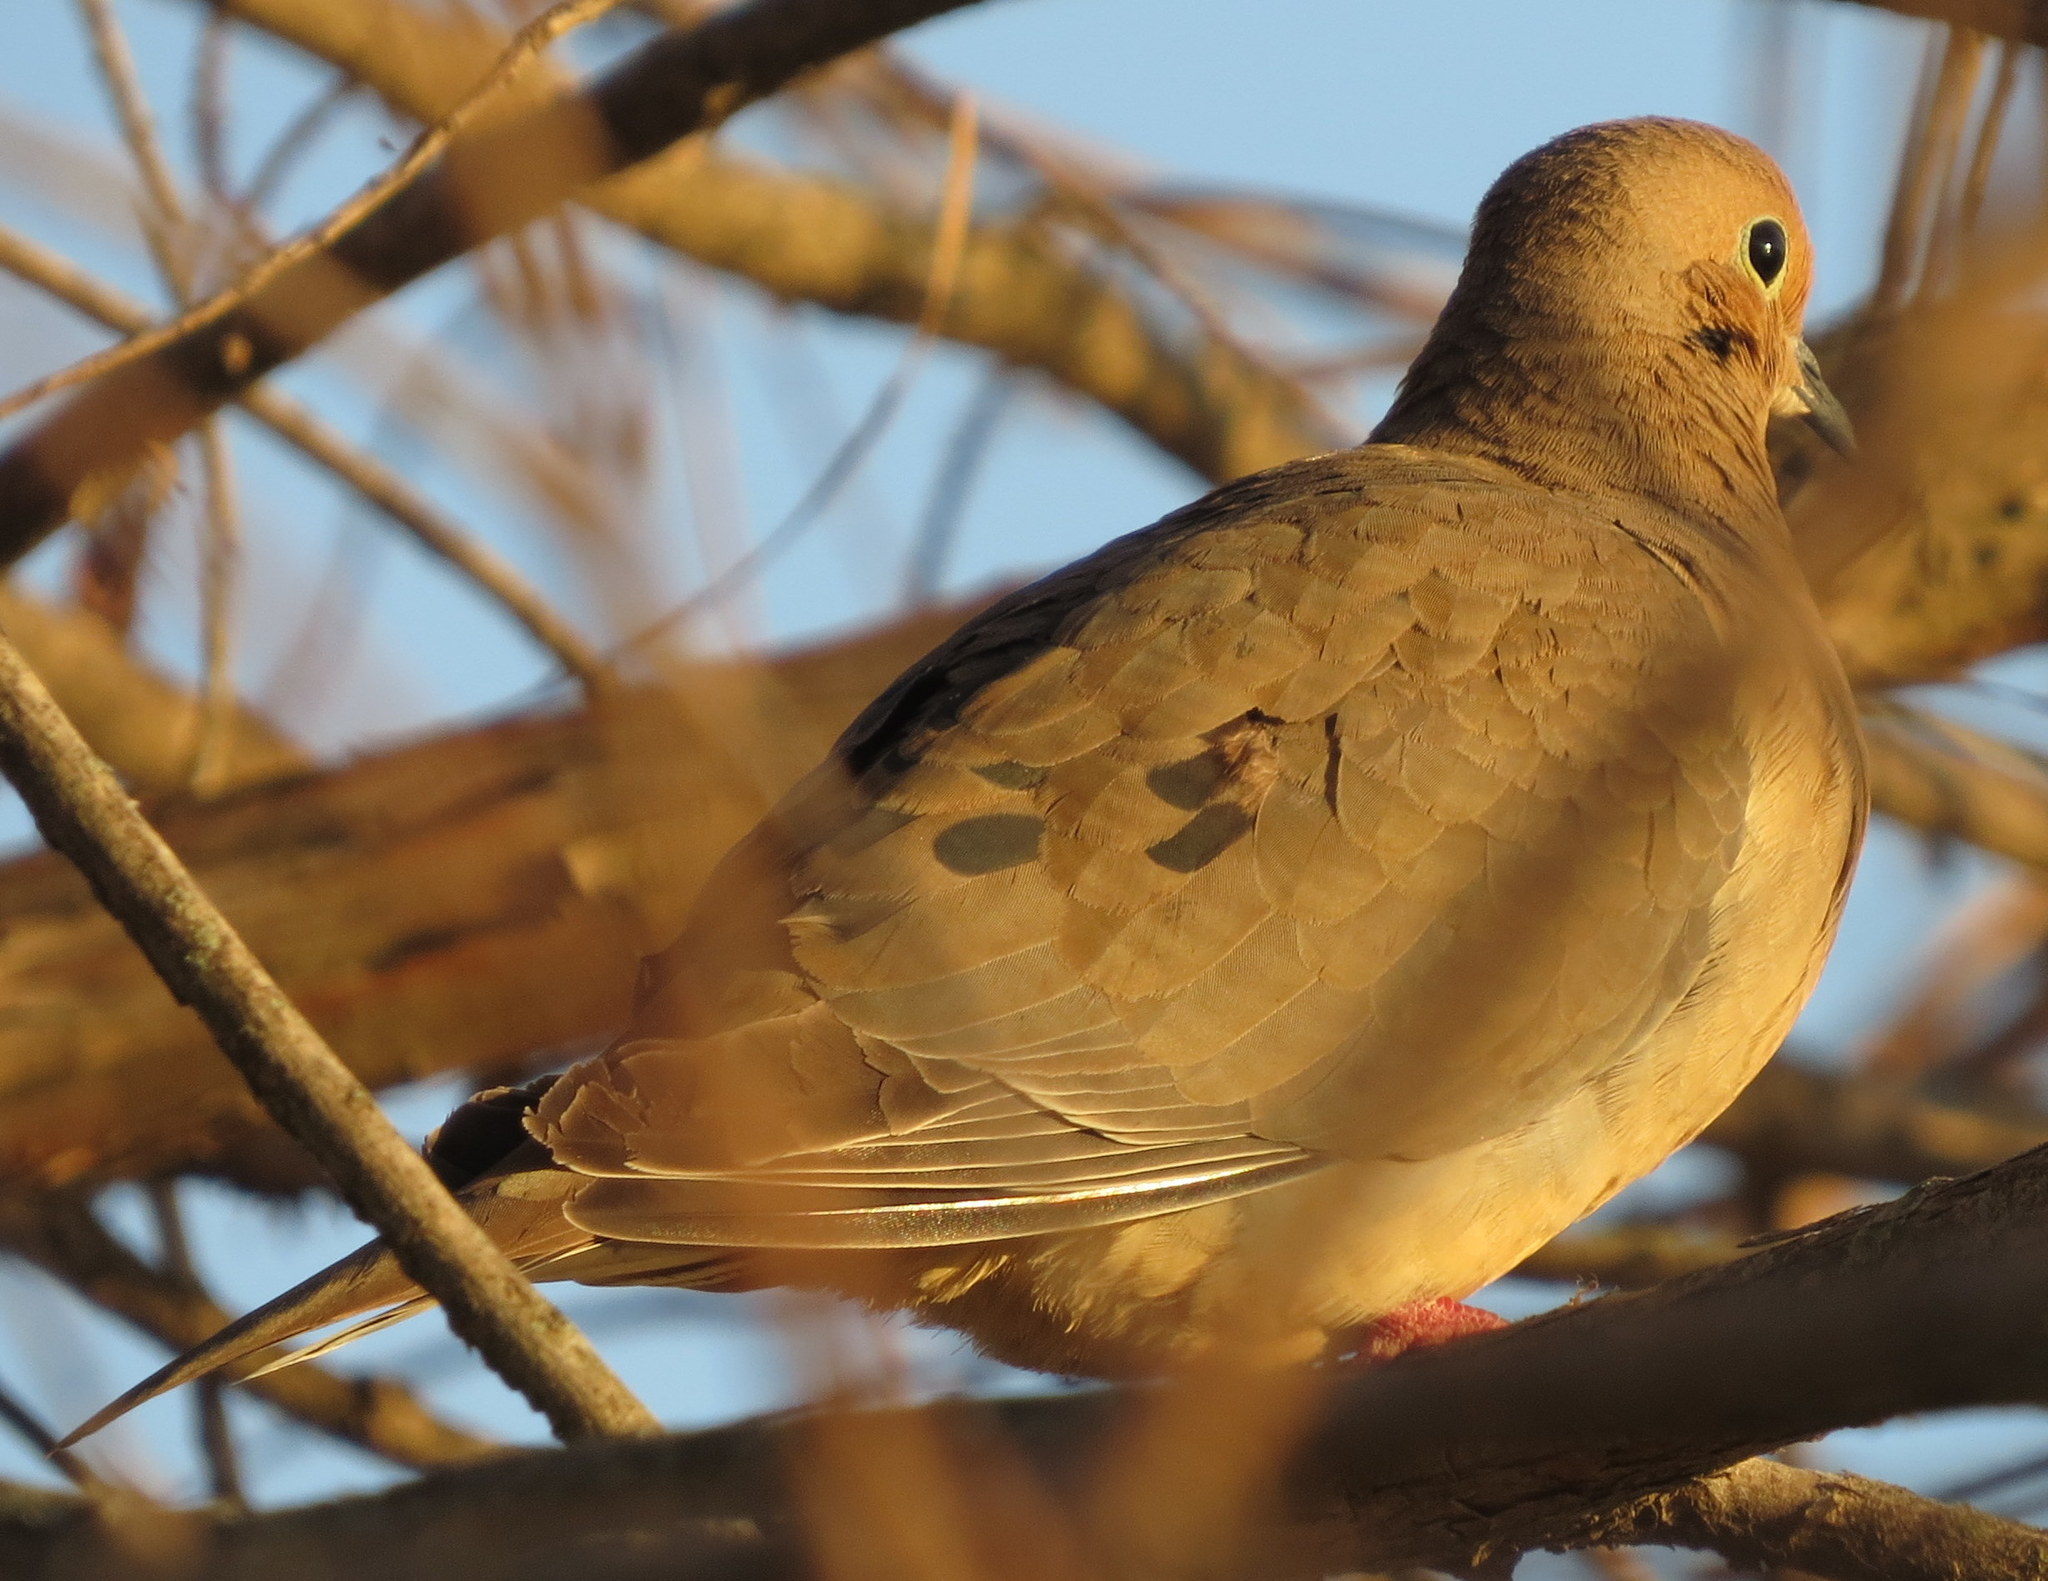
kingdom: Animalia
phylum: Chordata
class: Aves
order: Columbiformes
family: Columbidae
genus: Zenaida
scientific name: Zenaida macroura
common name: Mourning dove
